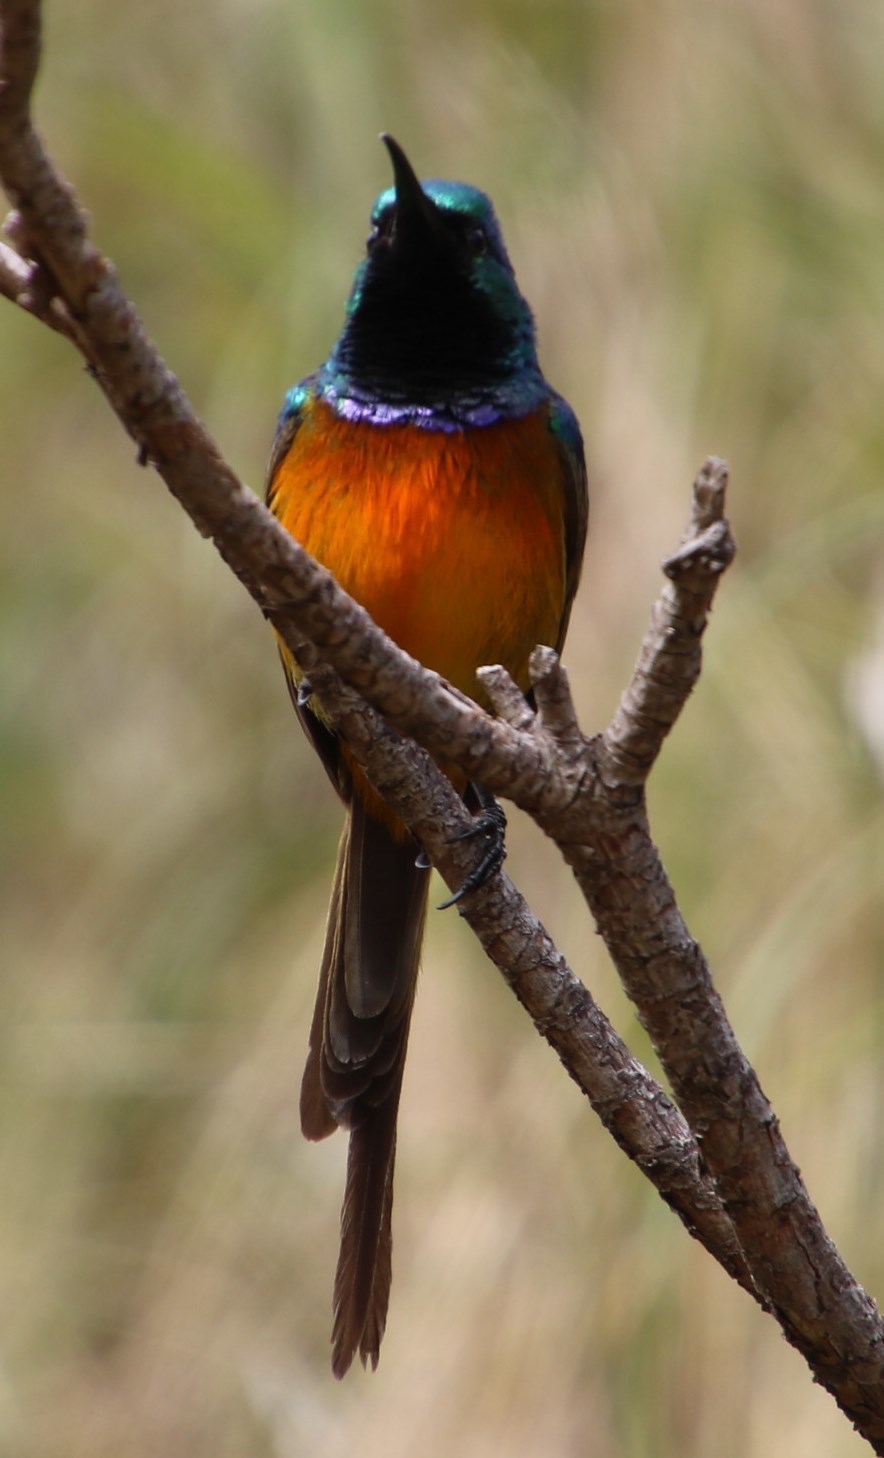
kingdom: Animalia
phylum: Chordata
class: Aves
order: Passeriformes
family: Nectariniidae
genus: Anthobaphes
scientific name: Anthobaphes violacea
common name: Orange-breasted sunbird
